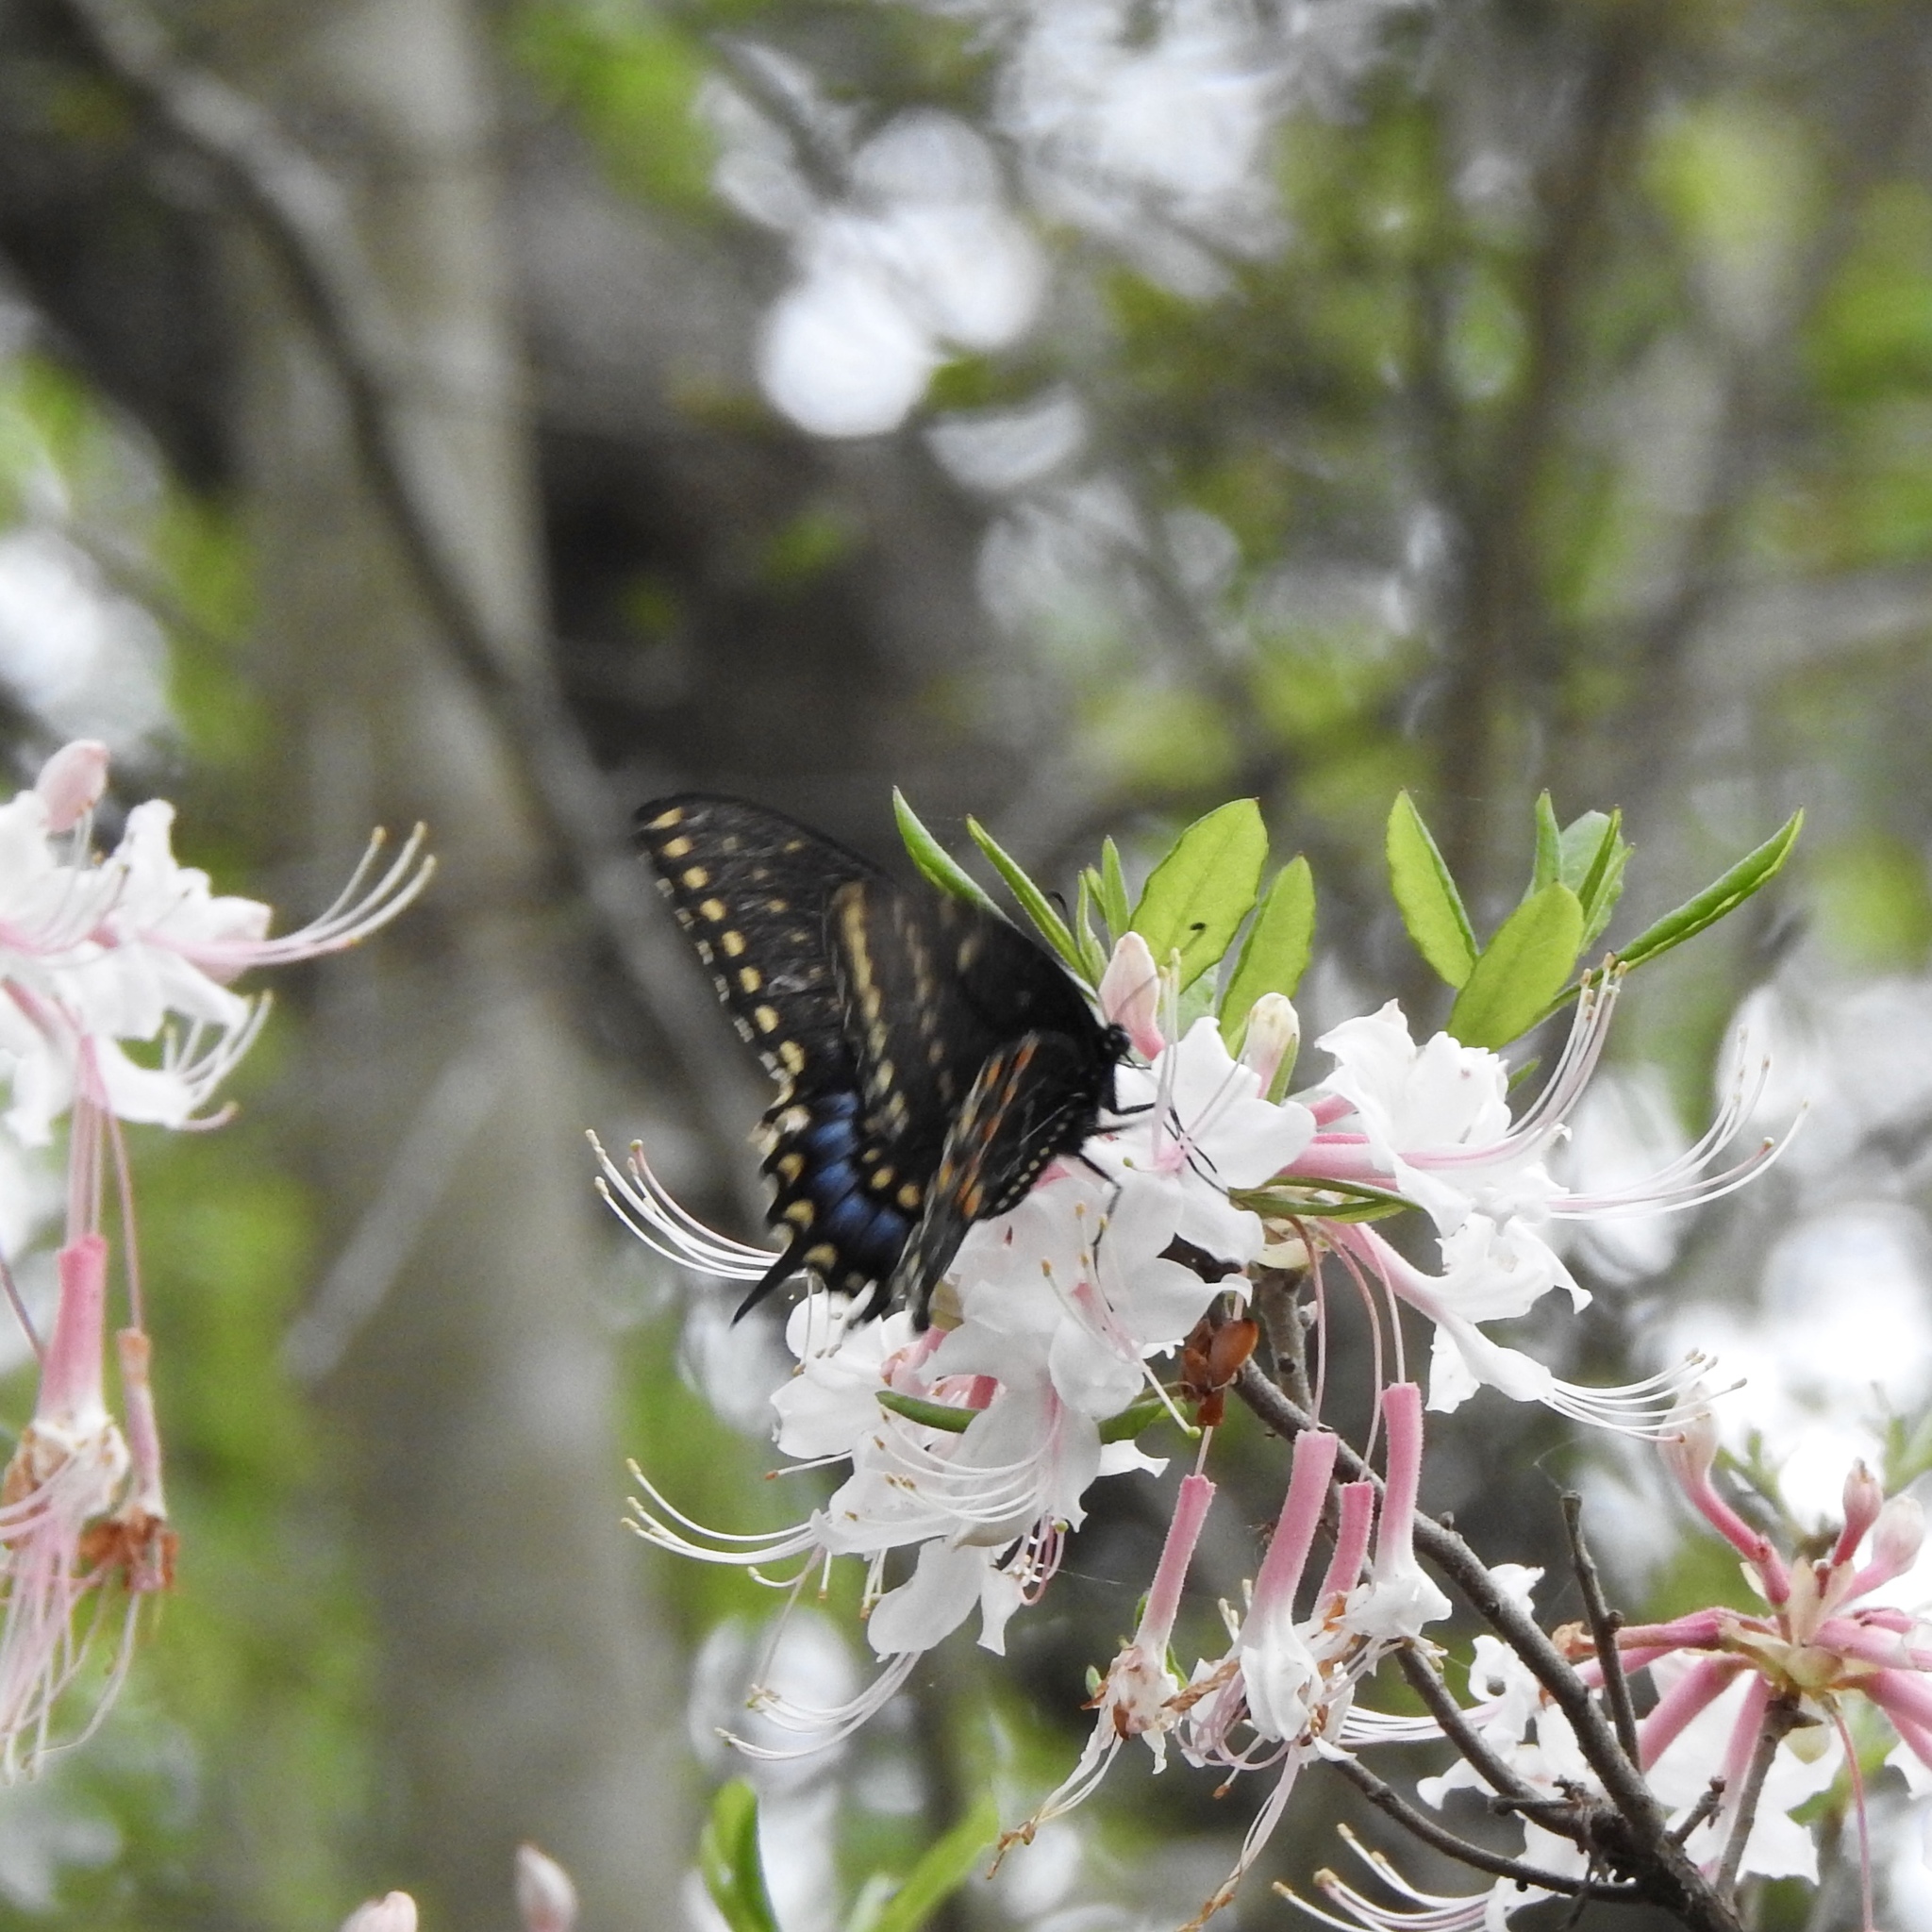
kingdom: Animalia
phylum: Arthropoda
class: Insecta
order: Lepidoptera
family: Papilionidae
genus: Papilio
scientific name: Papilio polyxenes
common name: Black swallowtail
